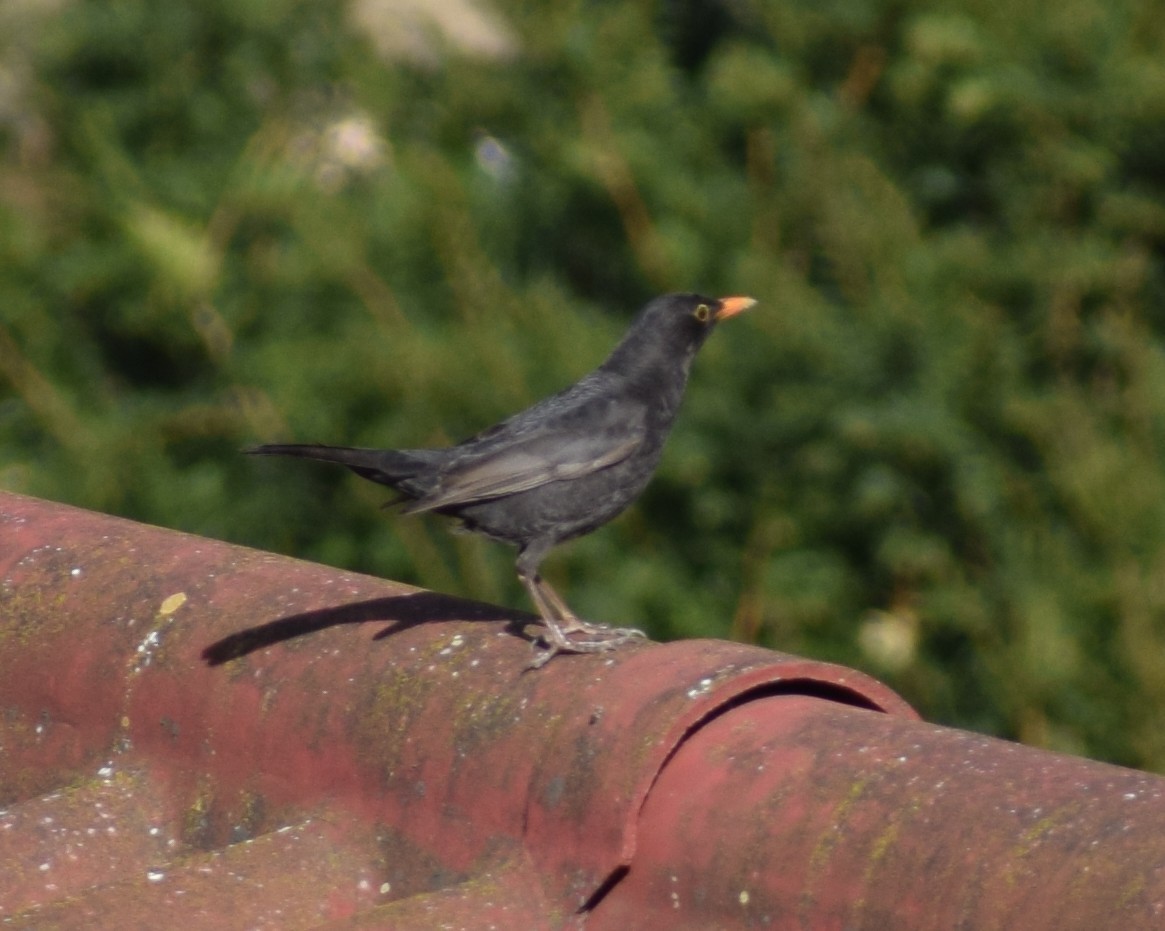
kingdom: Animalia
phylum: Chordata
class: Aves
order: Passeriformes
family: Turdidae
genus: Turdus
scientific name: Turdus merula
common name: Common blackbird
